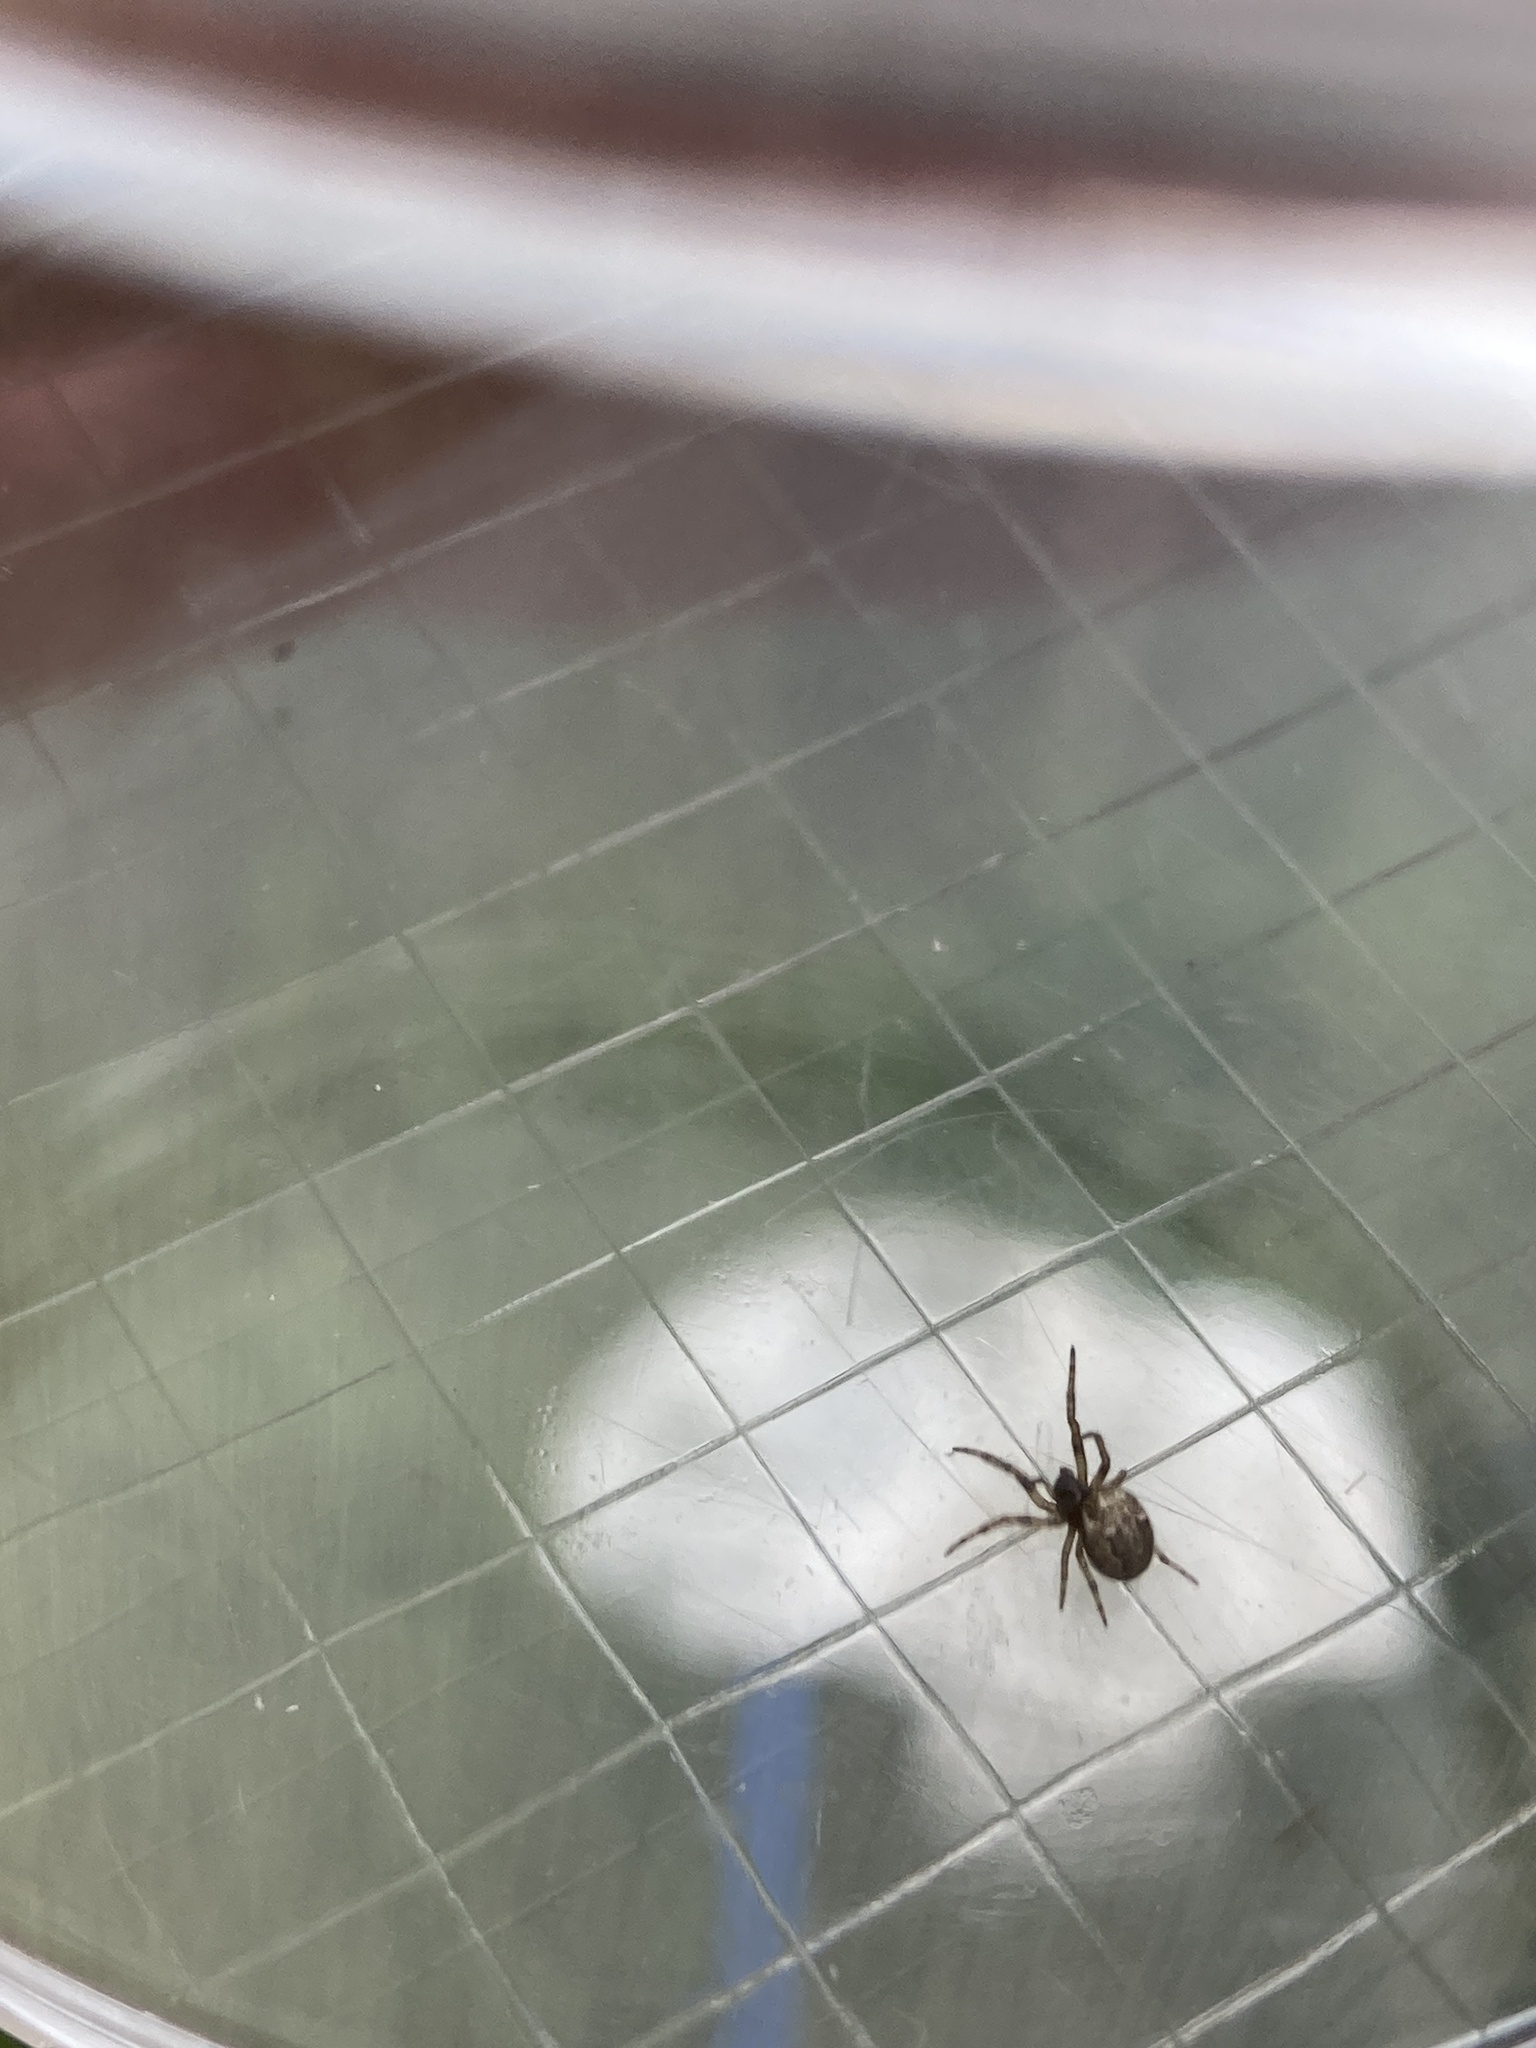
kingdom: Animalia
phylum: Arthropoda
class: Arachnida
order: Araneae
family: Araneidae
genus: Larinioides
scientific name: Larinioides cornutus
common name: Furrow orbweaver
